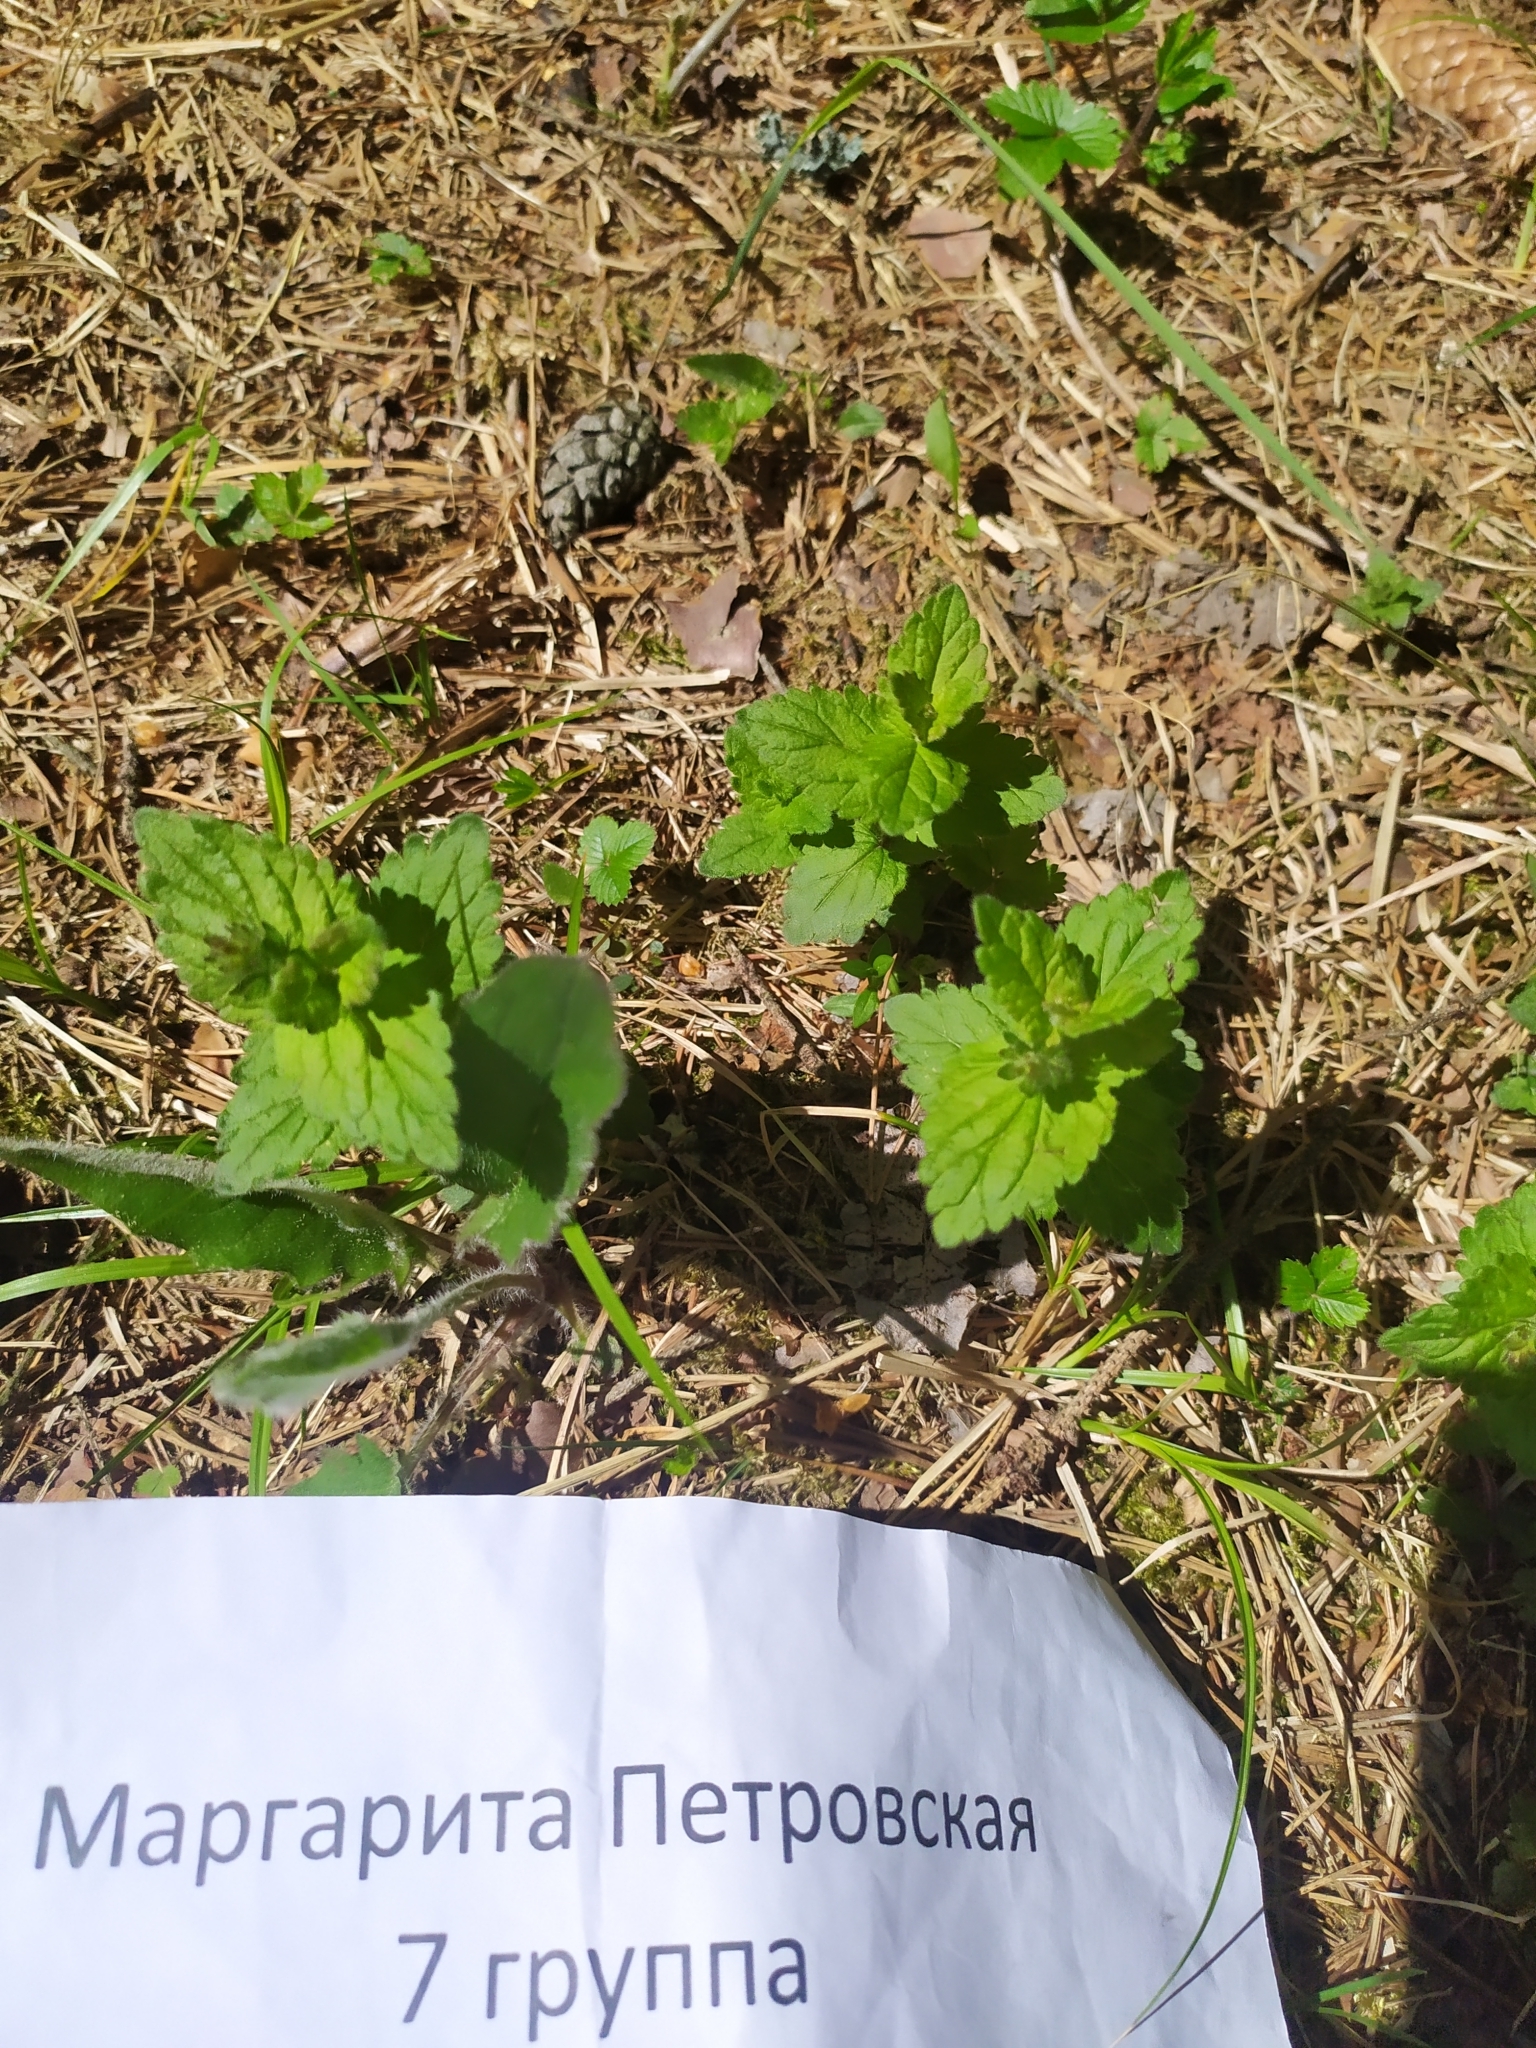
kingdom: Plantae
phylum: Tracheophyta
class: Magnoliopsida
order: Lamiales
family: Plantaginaceae
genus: Veronica
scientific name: Veronica chamaedrys
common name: Germander speedwell
